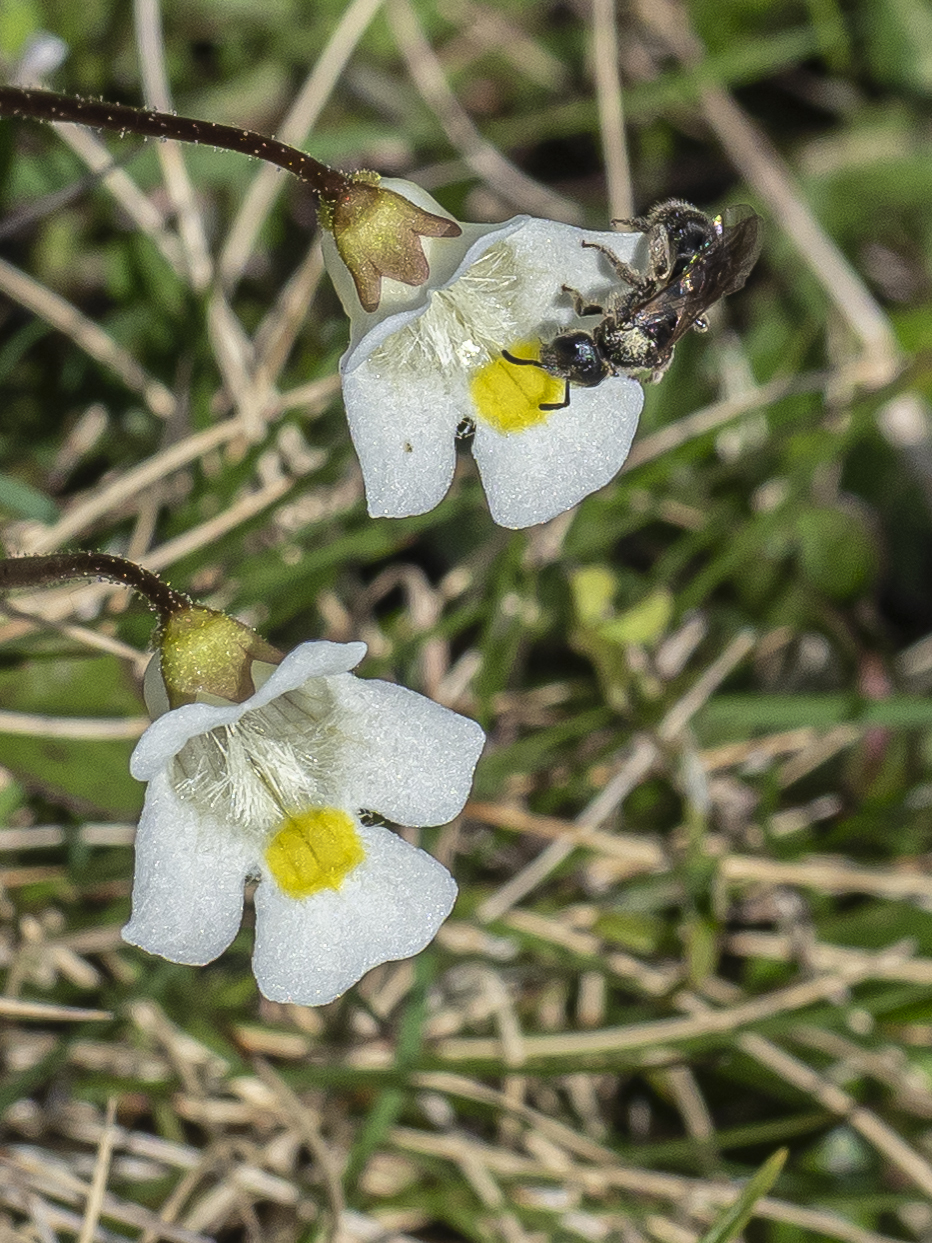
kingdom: Plantae
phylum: Tracheophyta
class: Magnoliopsida
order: Lamiales
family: Lentibulariaceae
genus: Pinguicula
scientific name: Pinguicula alpina
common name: Alpine butterwort
